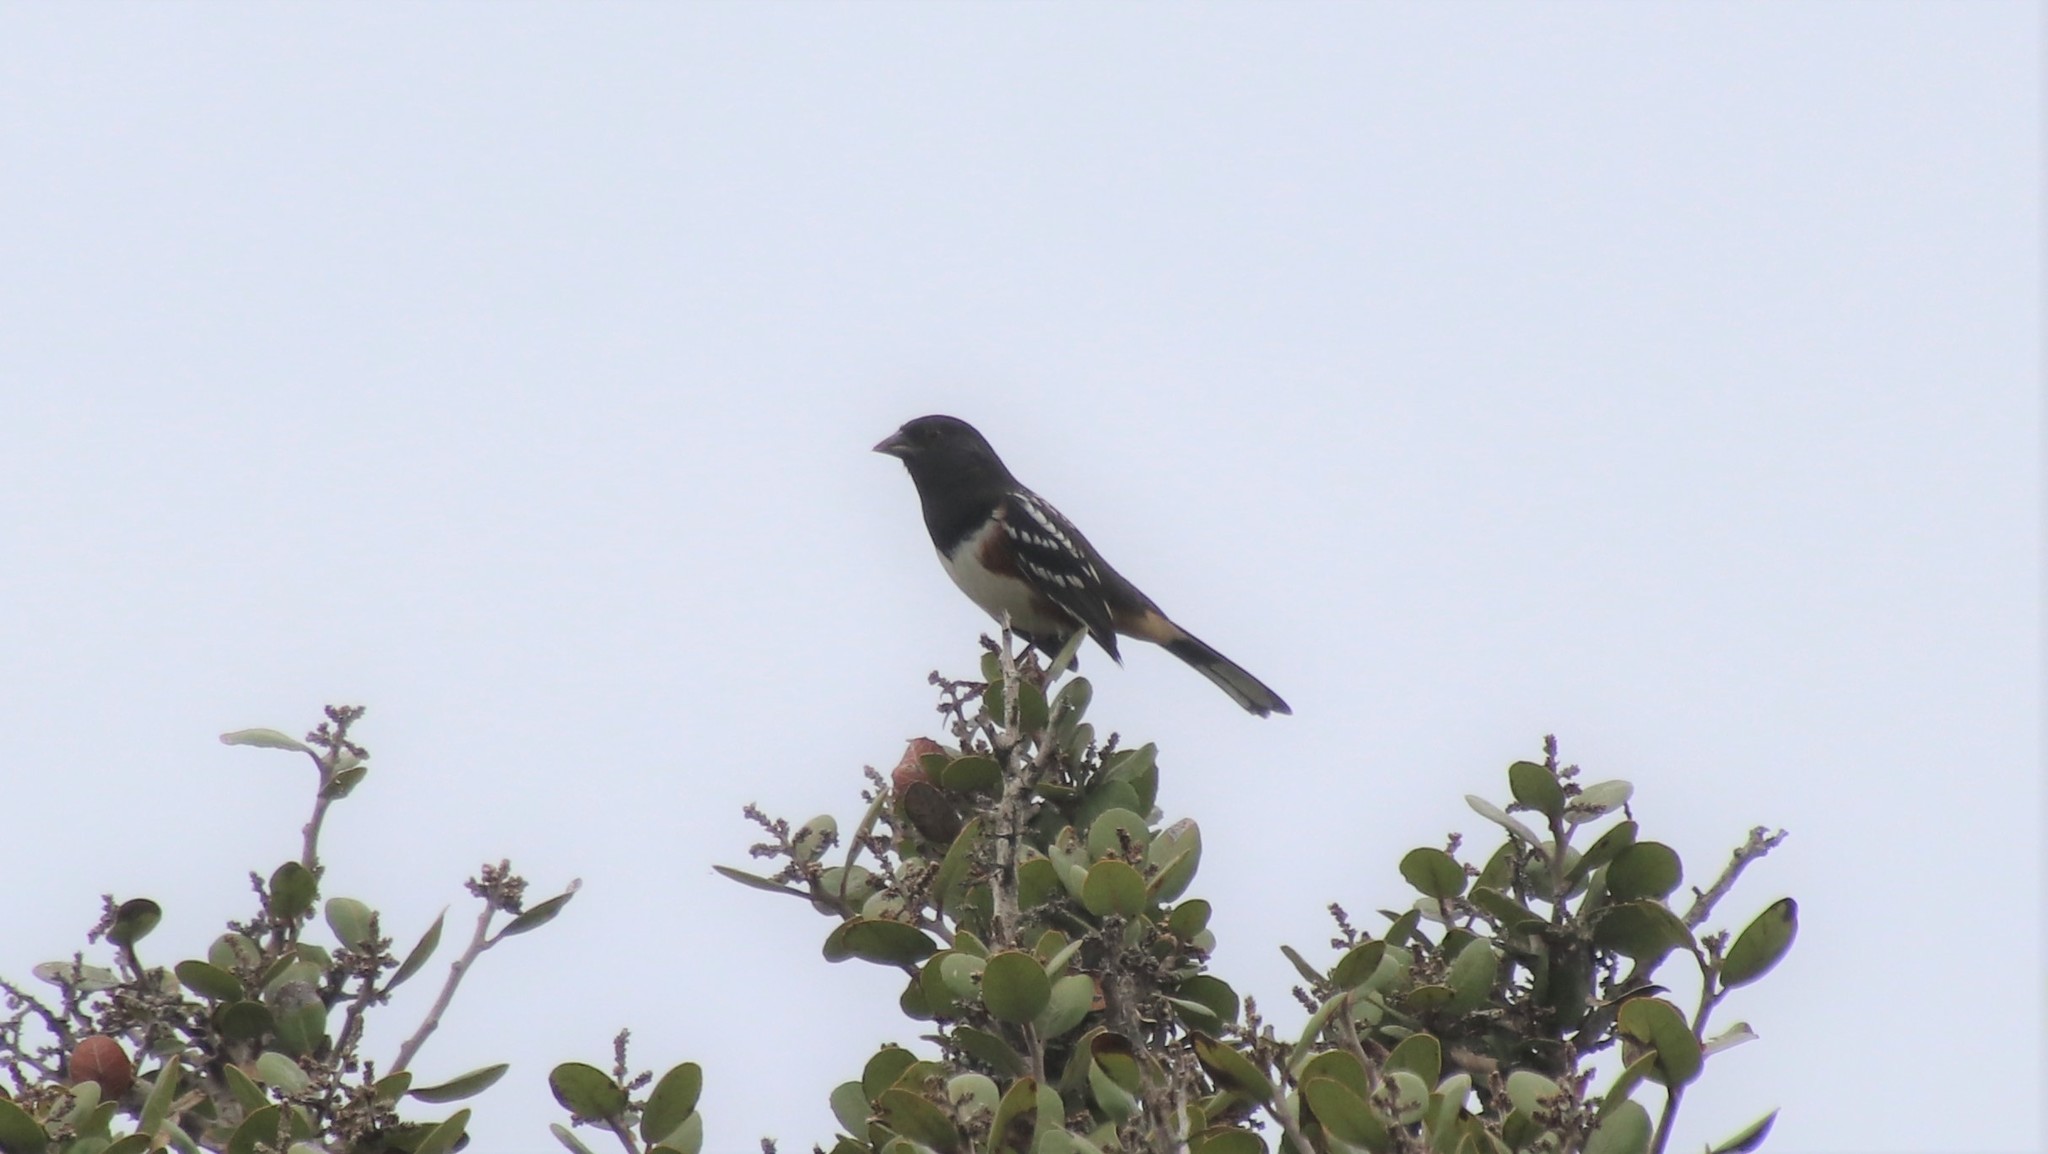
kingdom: Animalia
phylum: Chordata
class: Aves
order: Passeriformes
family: Passerellidae
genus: Pipilo
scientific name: Pipilo maculatus
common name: Spotted towhee
